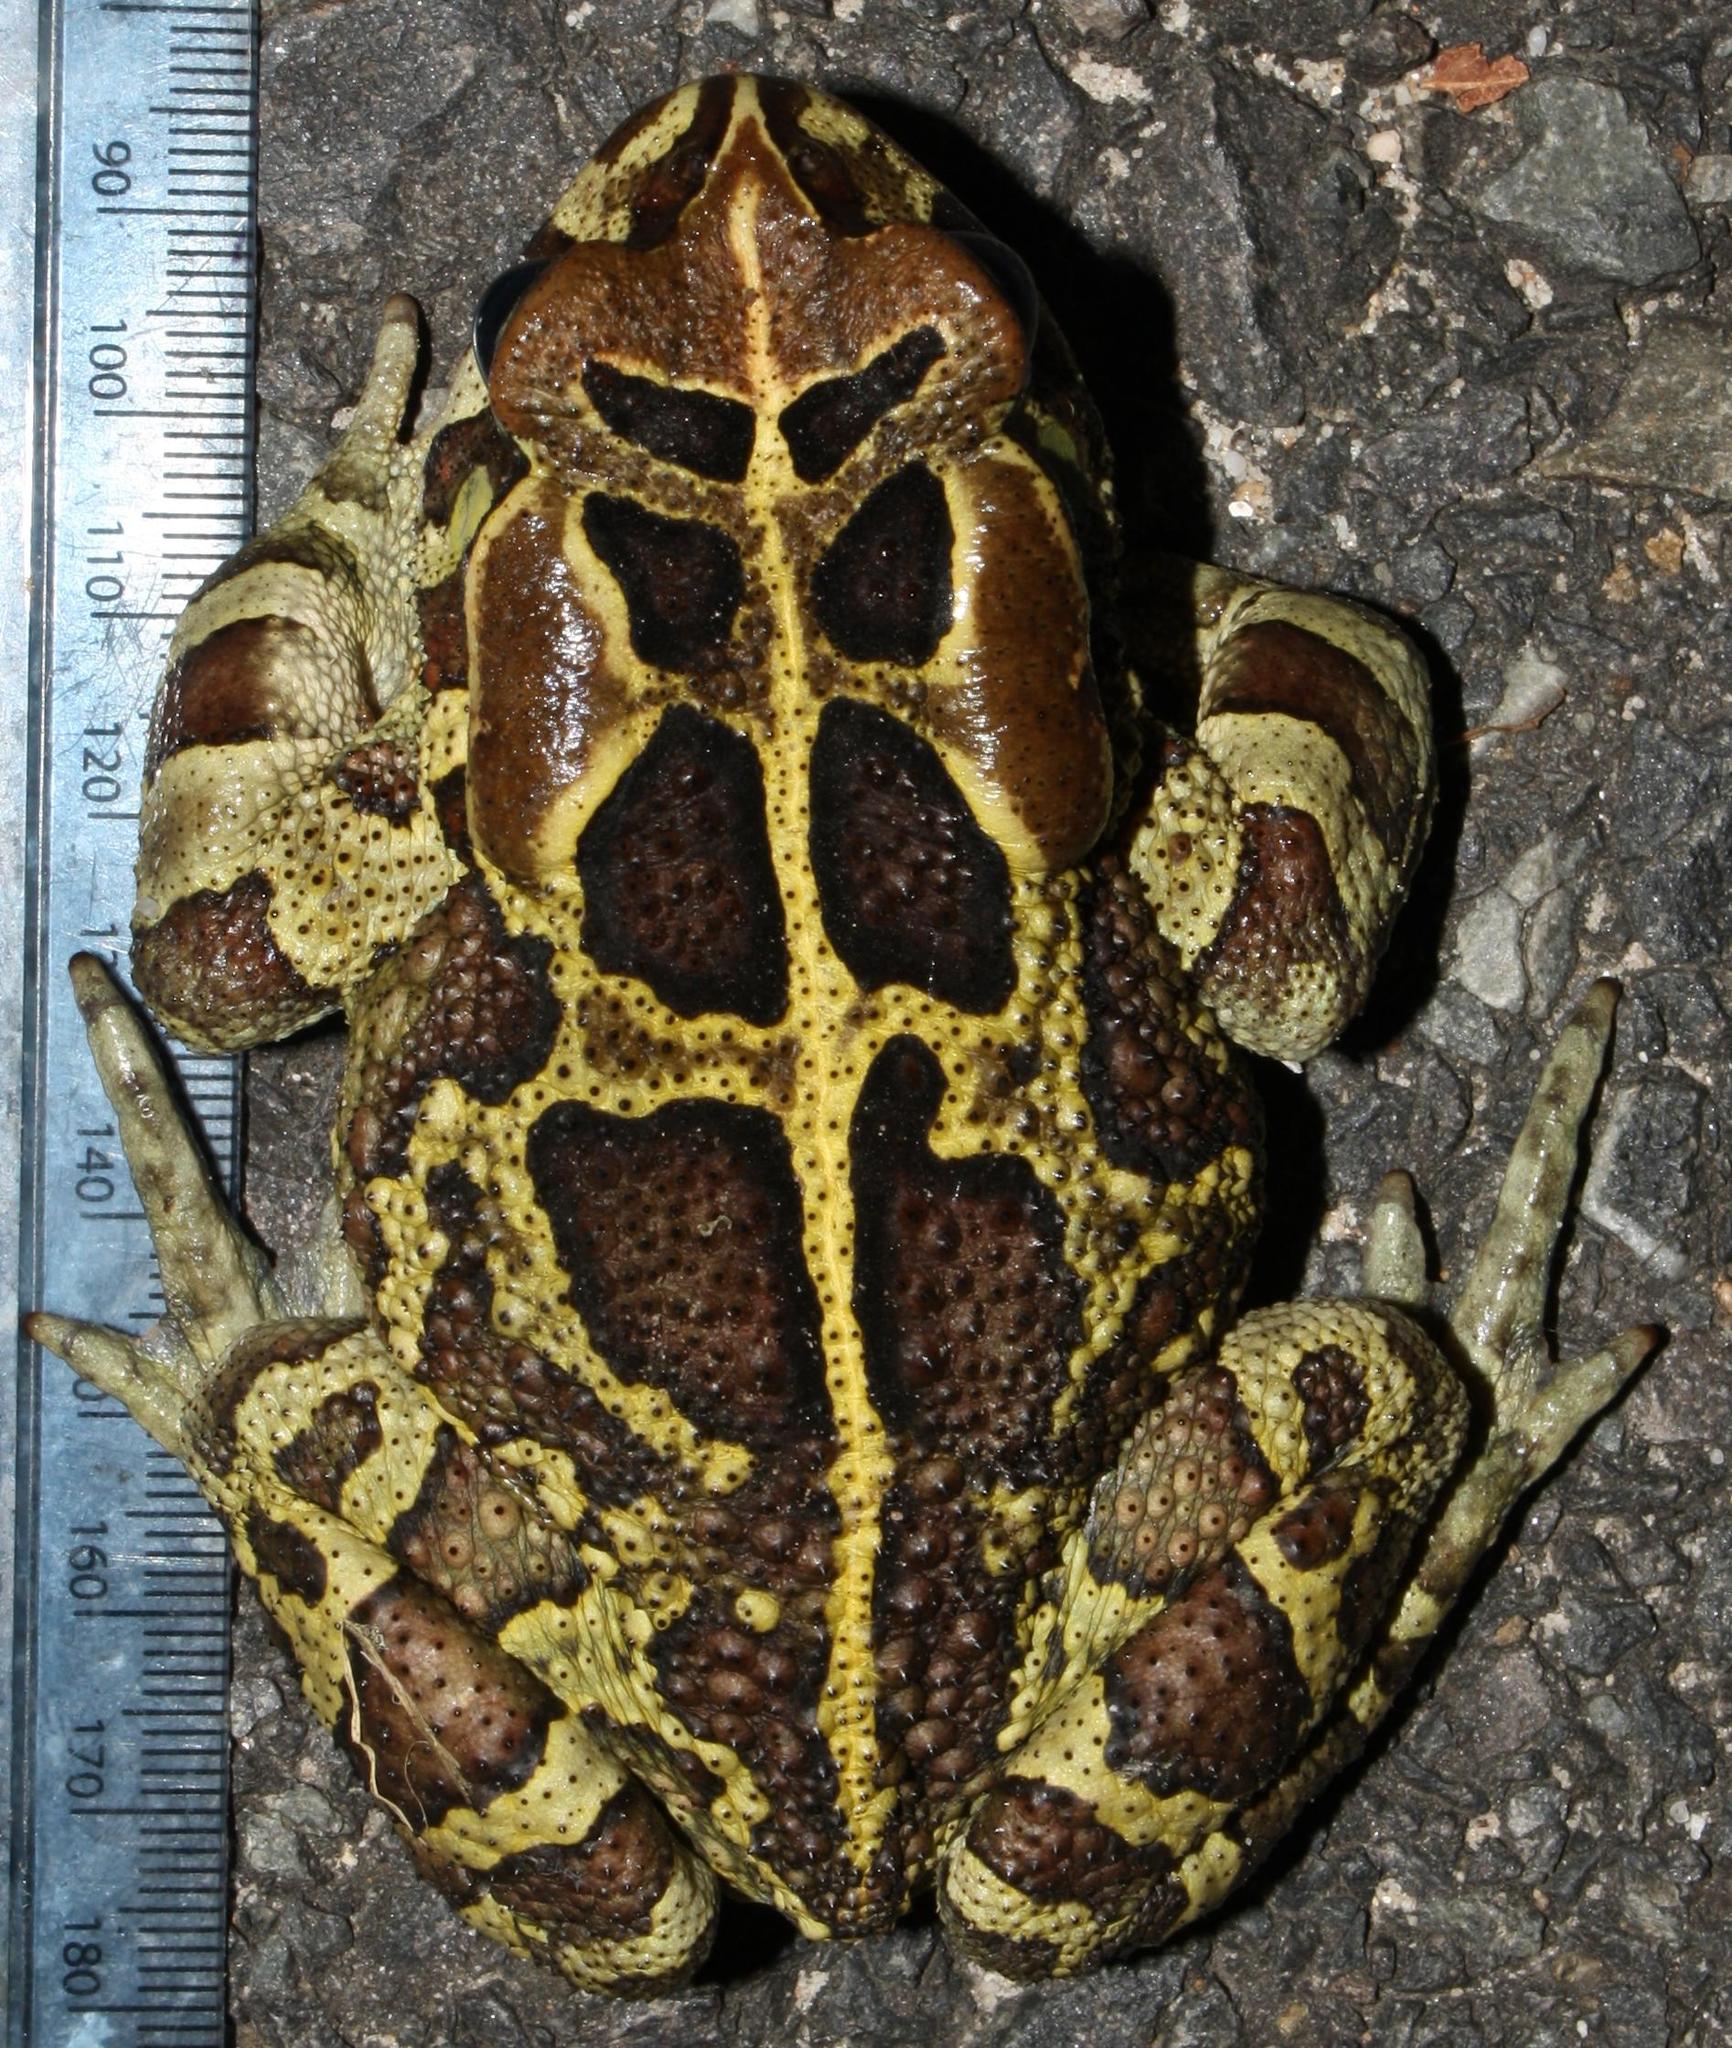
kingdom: Animalia
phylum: Chordata
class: Amphibia
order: Anura
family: Bufonidae
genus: Sclerophrys
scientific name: Sclerophrys pantherina
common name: Panther toad
